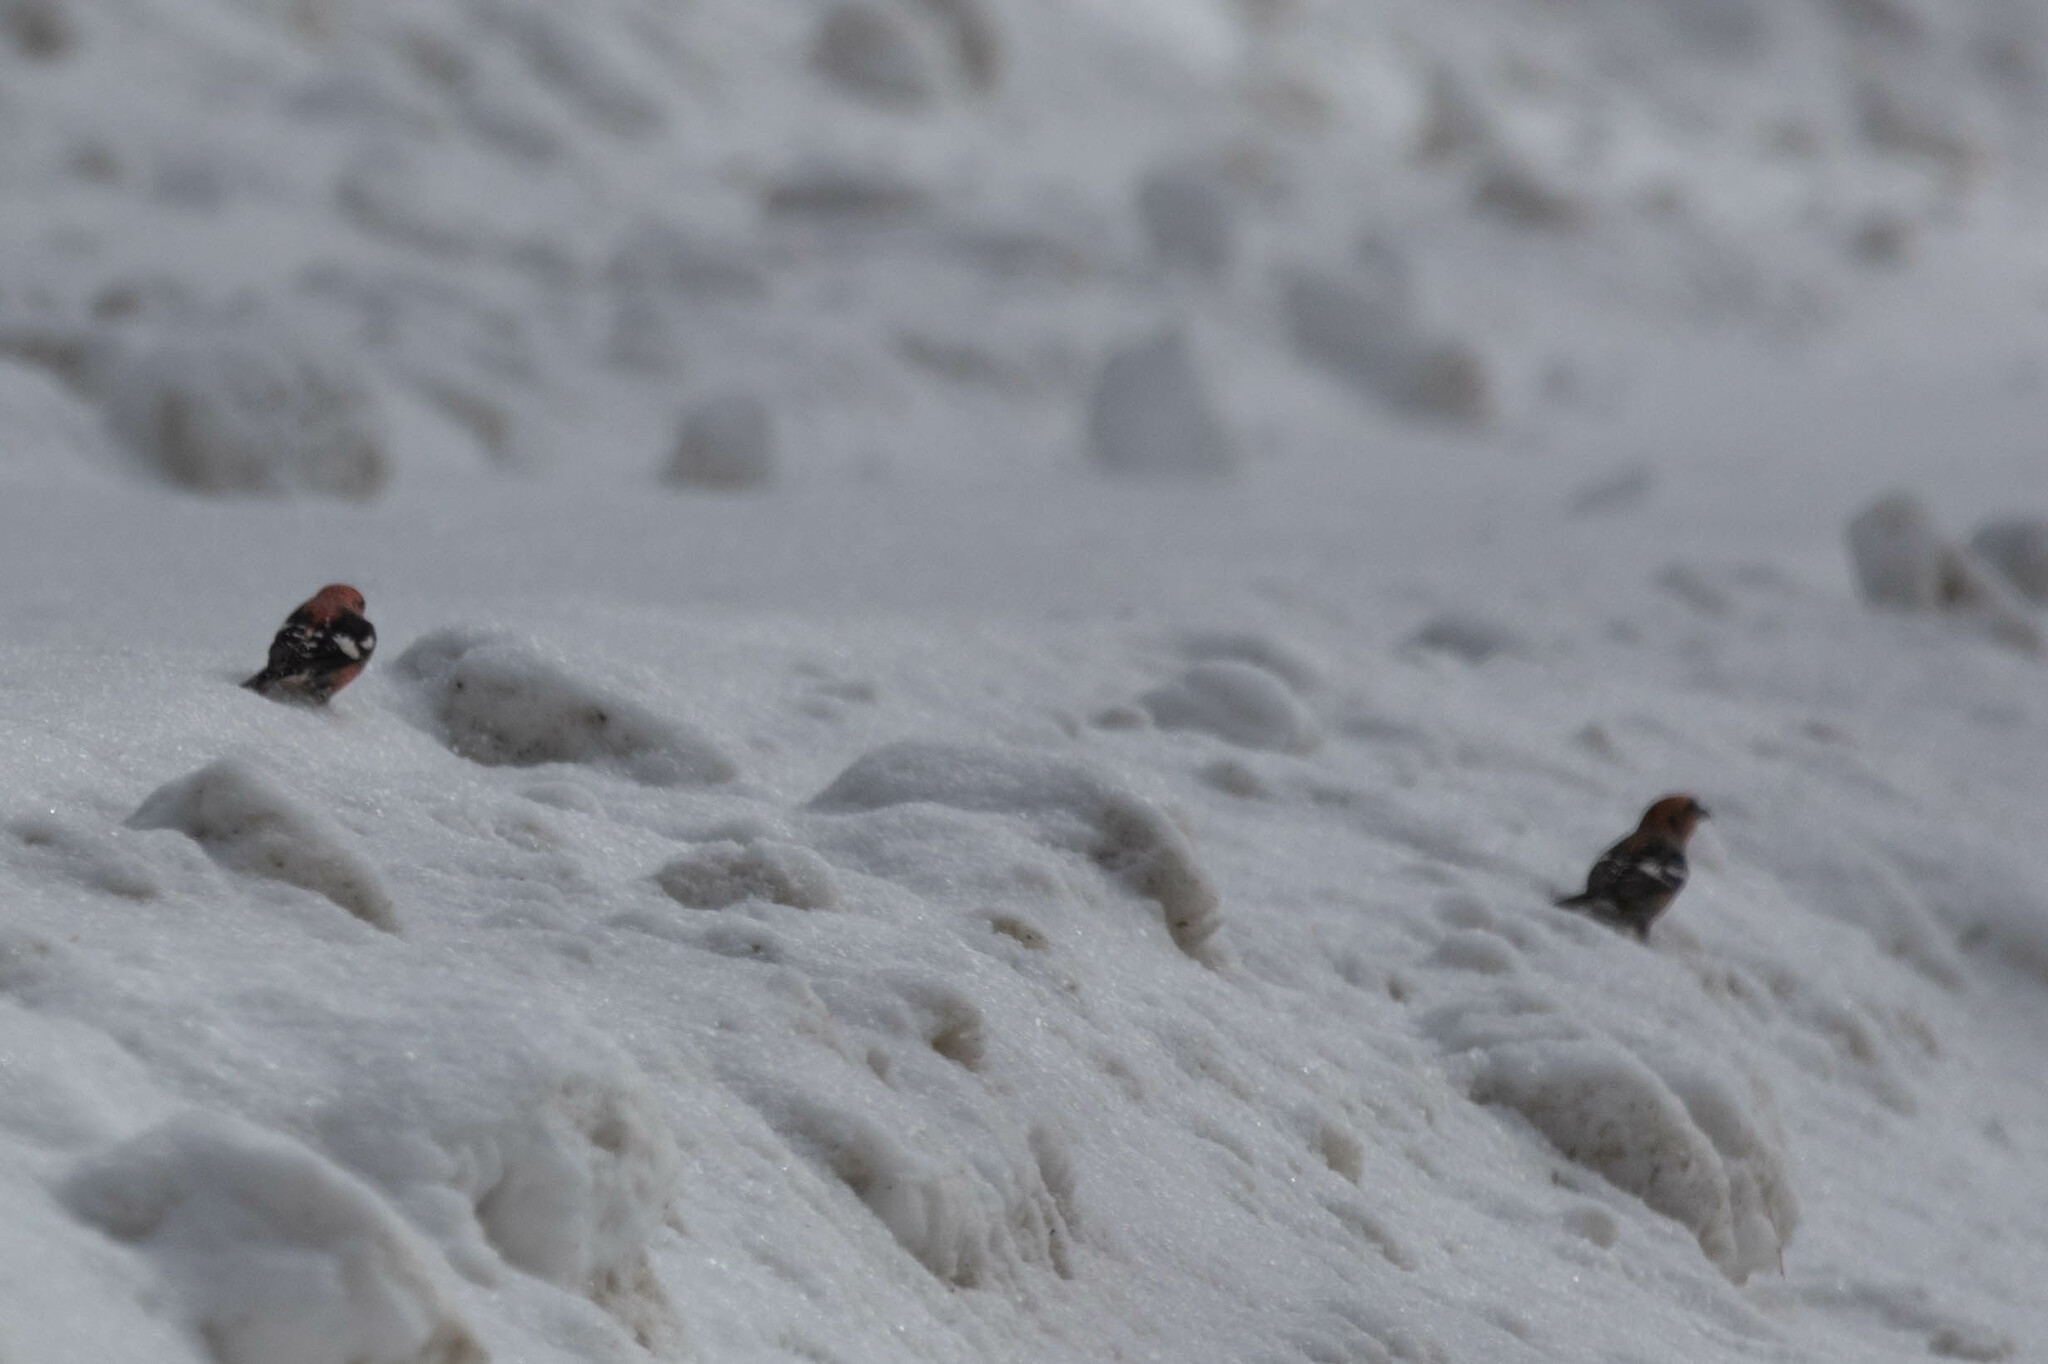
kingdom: Animalia
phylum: Chordata
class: Aves
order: Passeriformes
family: Fringillidae
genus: Loxia
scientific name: Loxia leucoptera
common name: Two-barred crossbill
